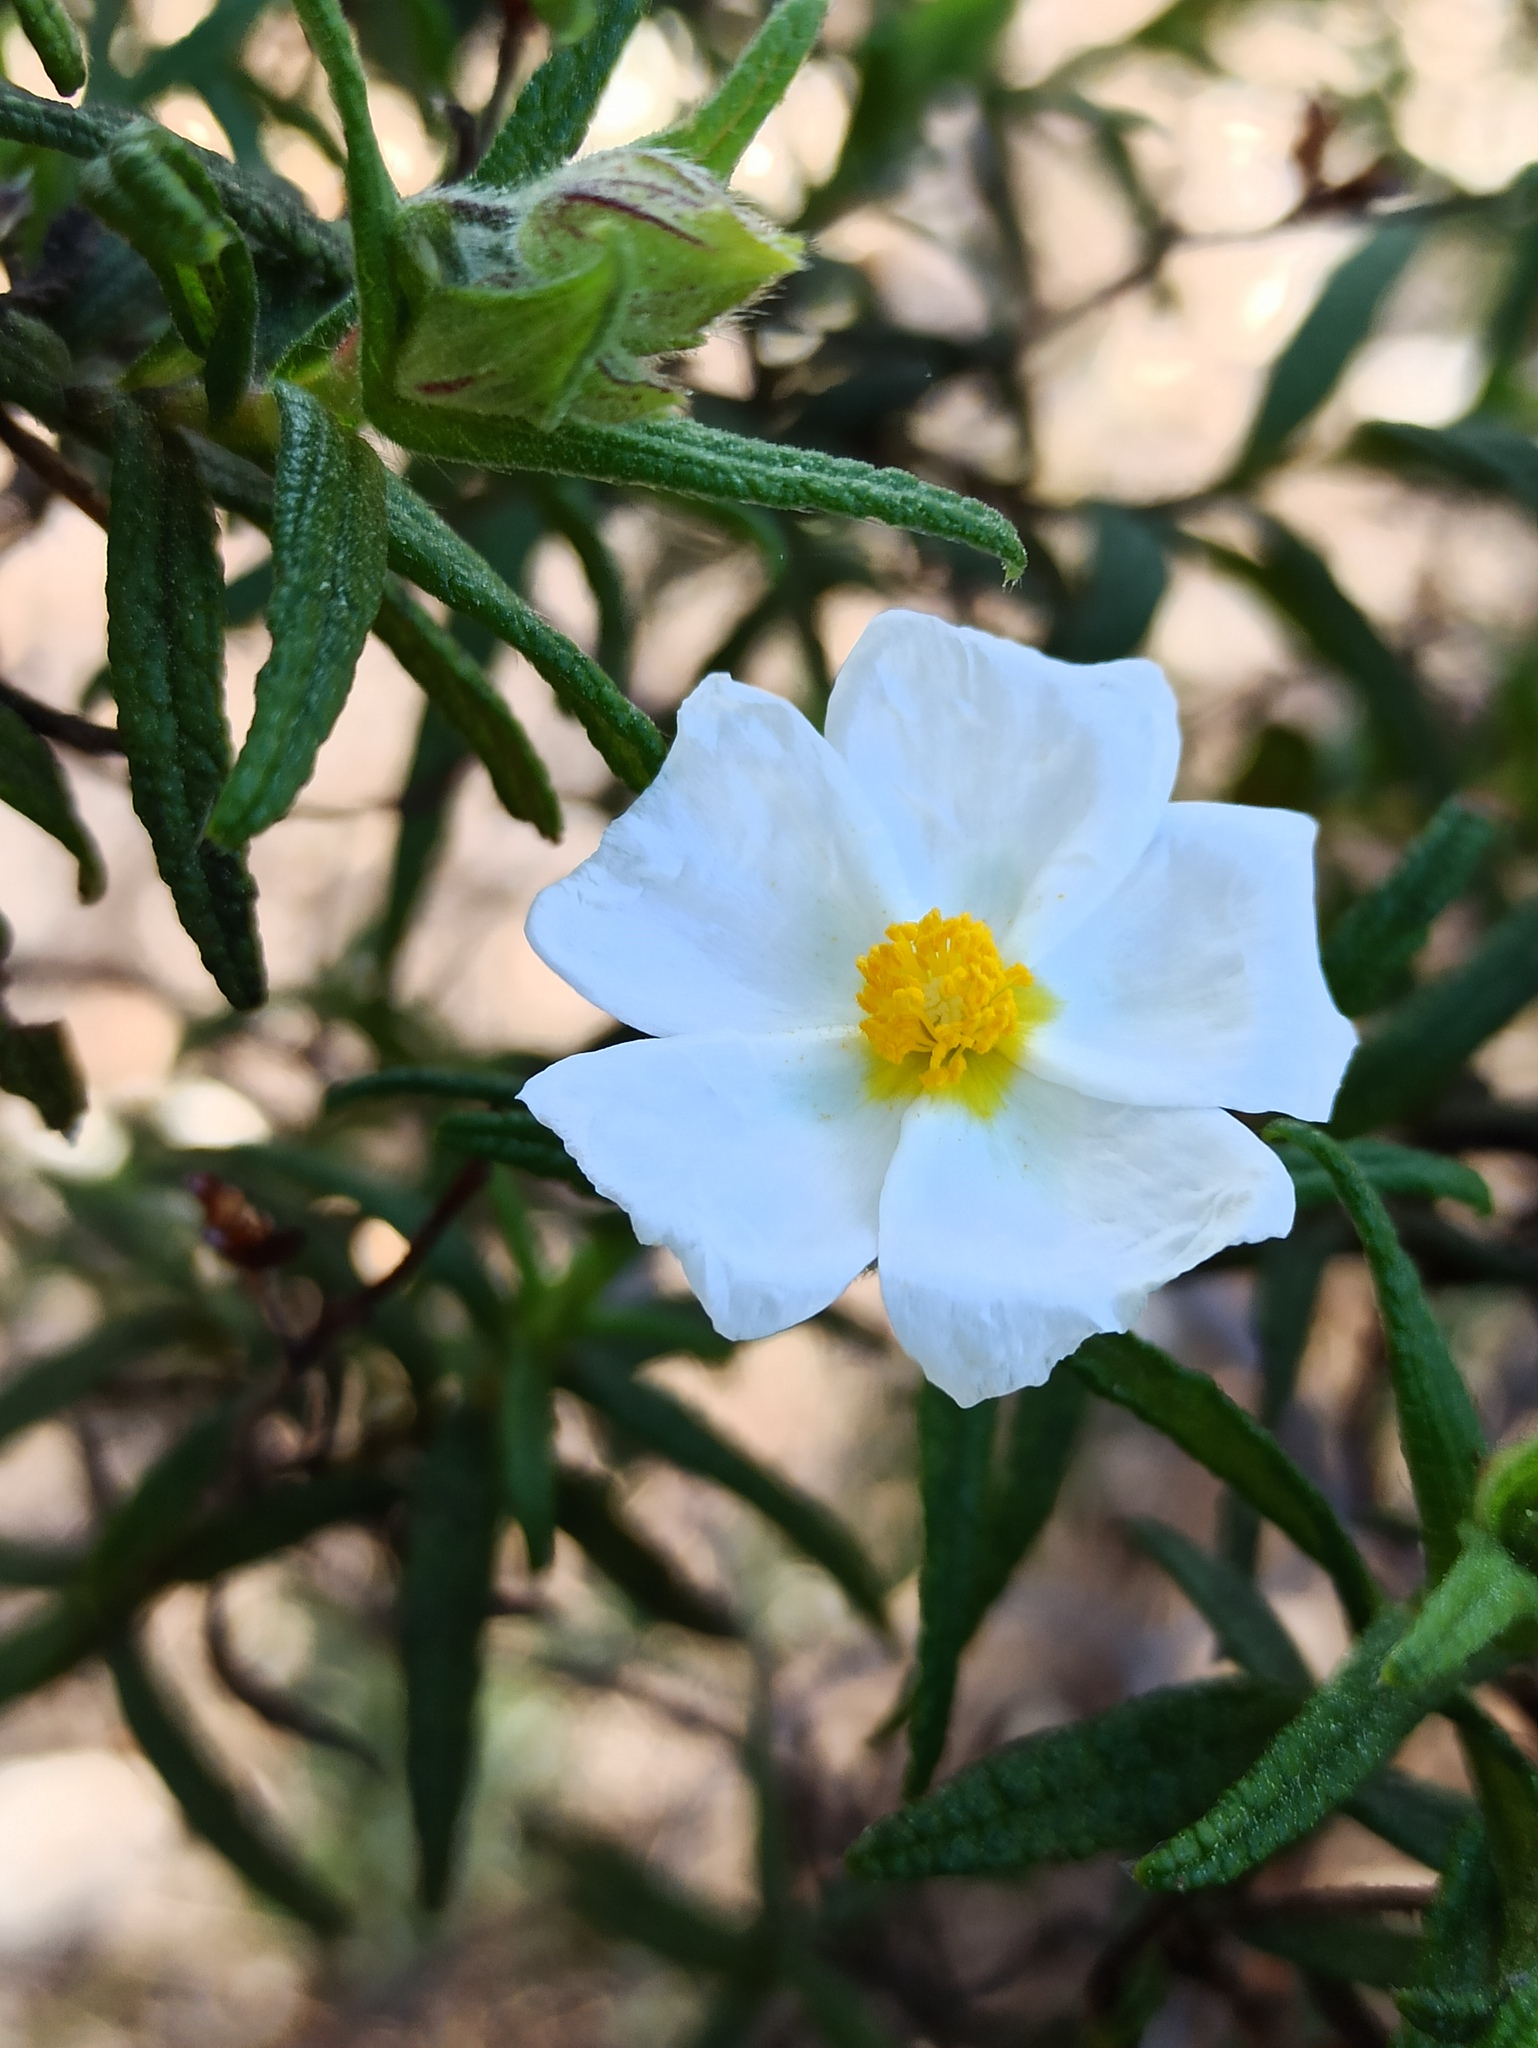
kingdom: Plantae
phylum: Tracheophyta
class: Magnoliopsida
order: Malvales
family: Cistaceae
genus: Cistus
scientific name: Cistus monspeliensis
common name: Montpelier cistus
